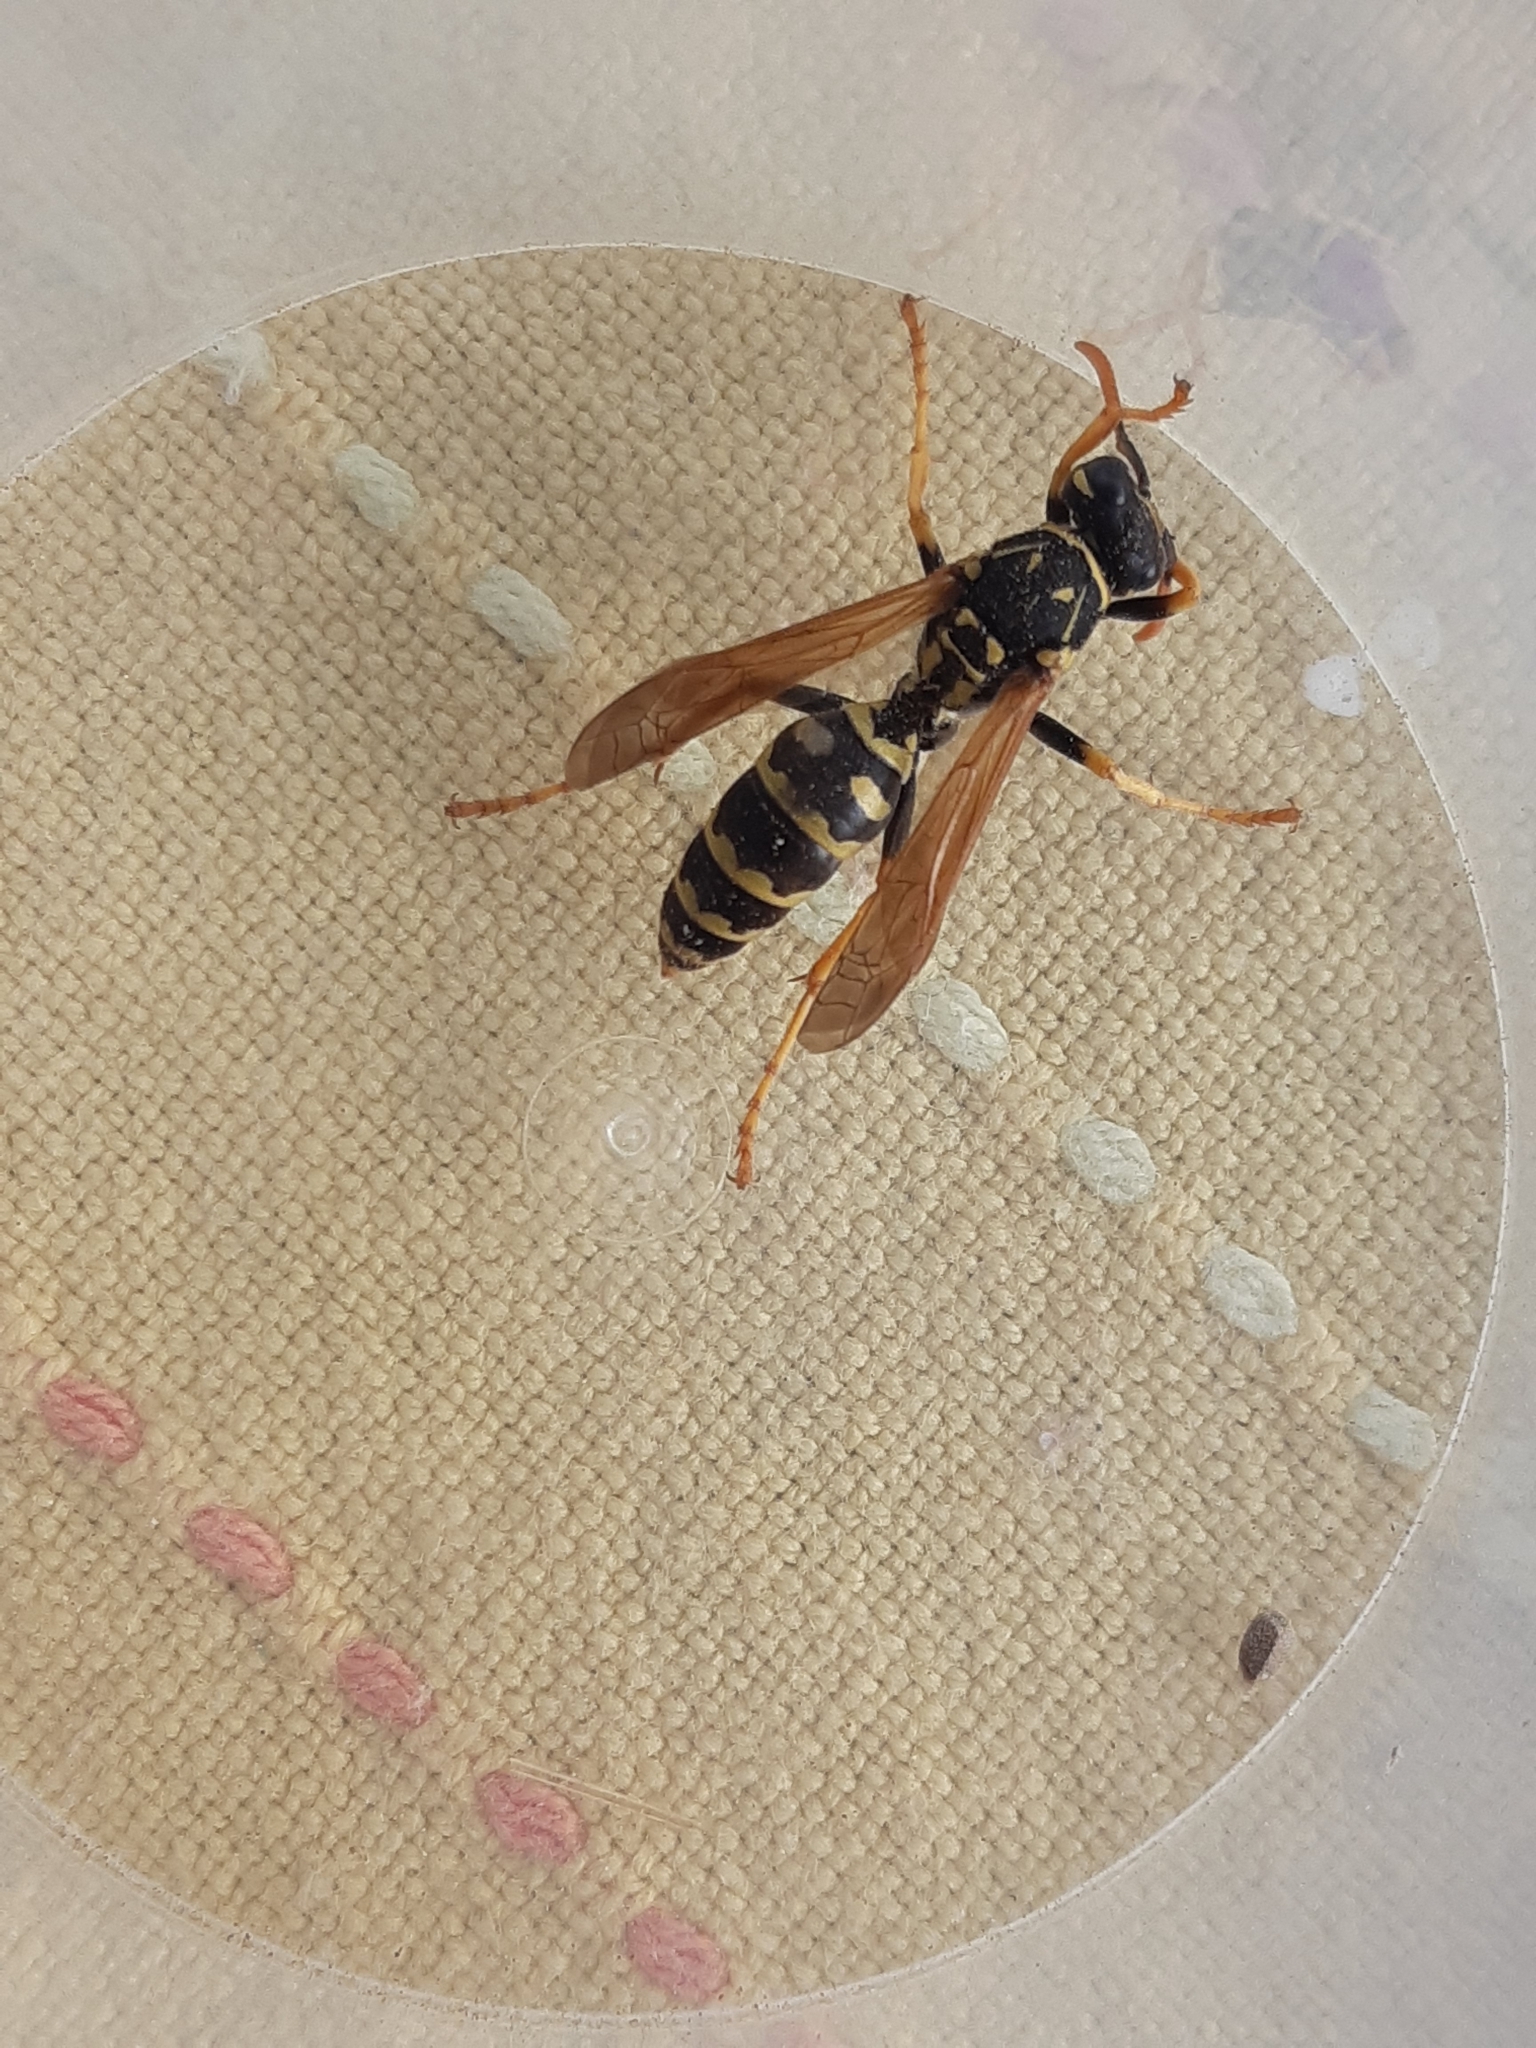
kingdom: Animalia
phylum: Arthropoda
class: Insecta
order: Hymenoptera
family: Eumenidae
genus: Polistes
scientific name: Polistes dominula
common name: Paper wasp
